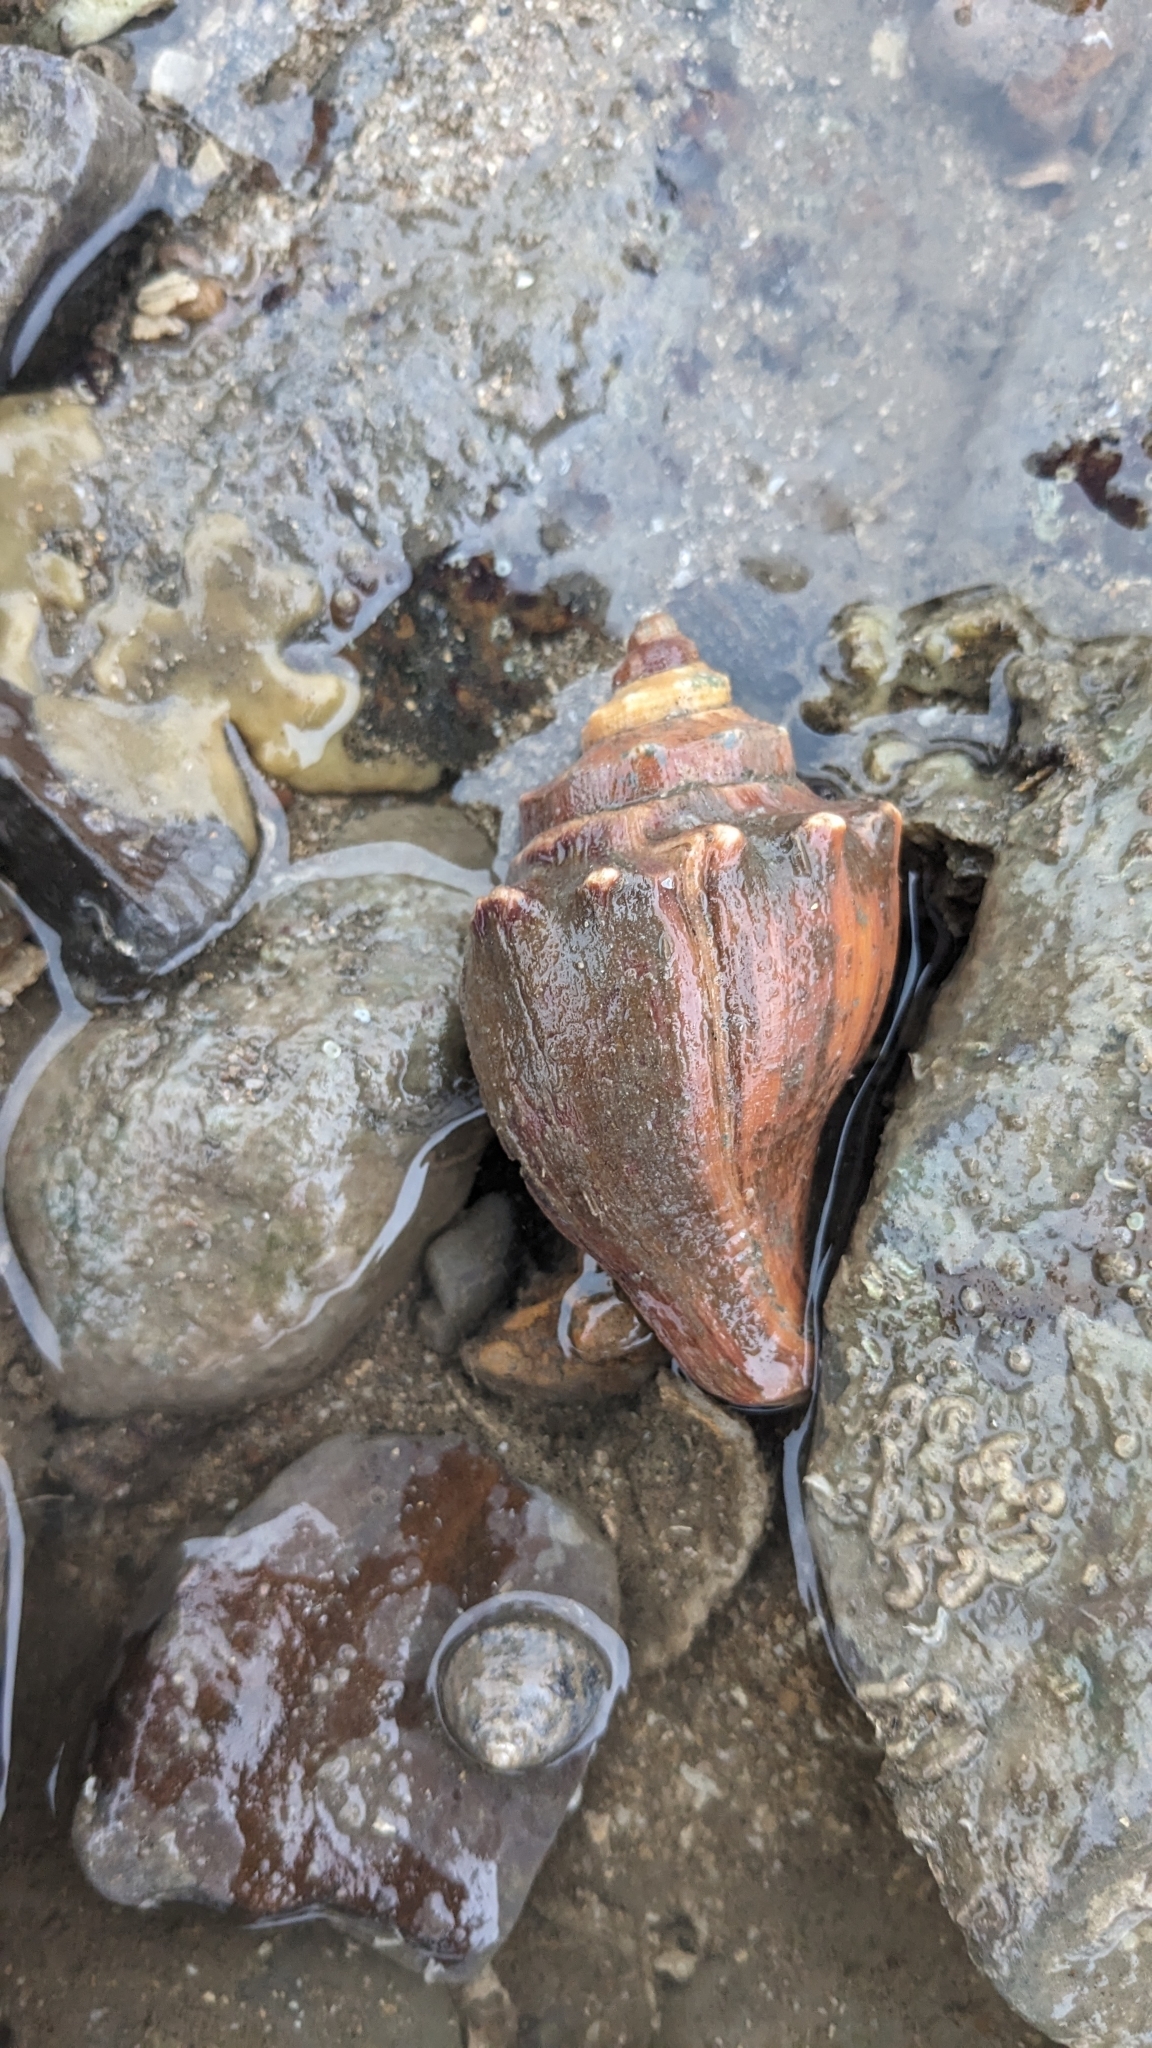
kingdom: Animalia
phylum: Mollusca
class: Gastropoda
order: Neogastropoda
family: Melongenidae
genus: Volegalea
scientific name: Volegalea cochlidium
